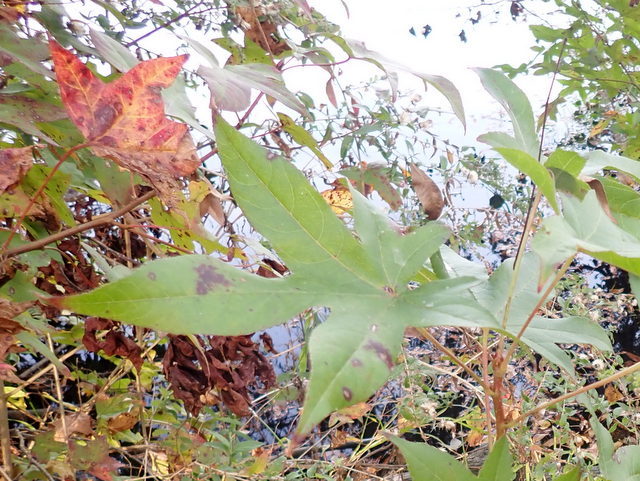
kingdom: Plantae
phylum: Tracheophyta
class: Magnoliopsida
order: Saxifragales
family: Altingiaceae
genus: Liquidambar
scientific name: Liquidambar styraciflua
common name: Sweet gum
